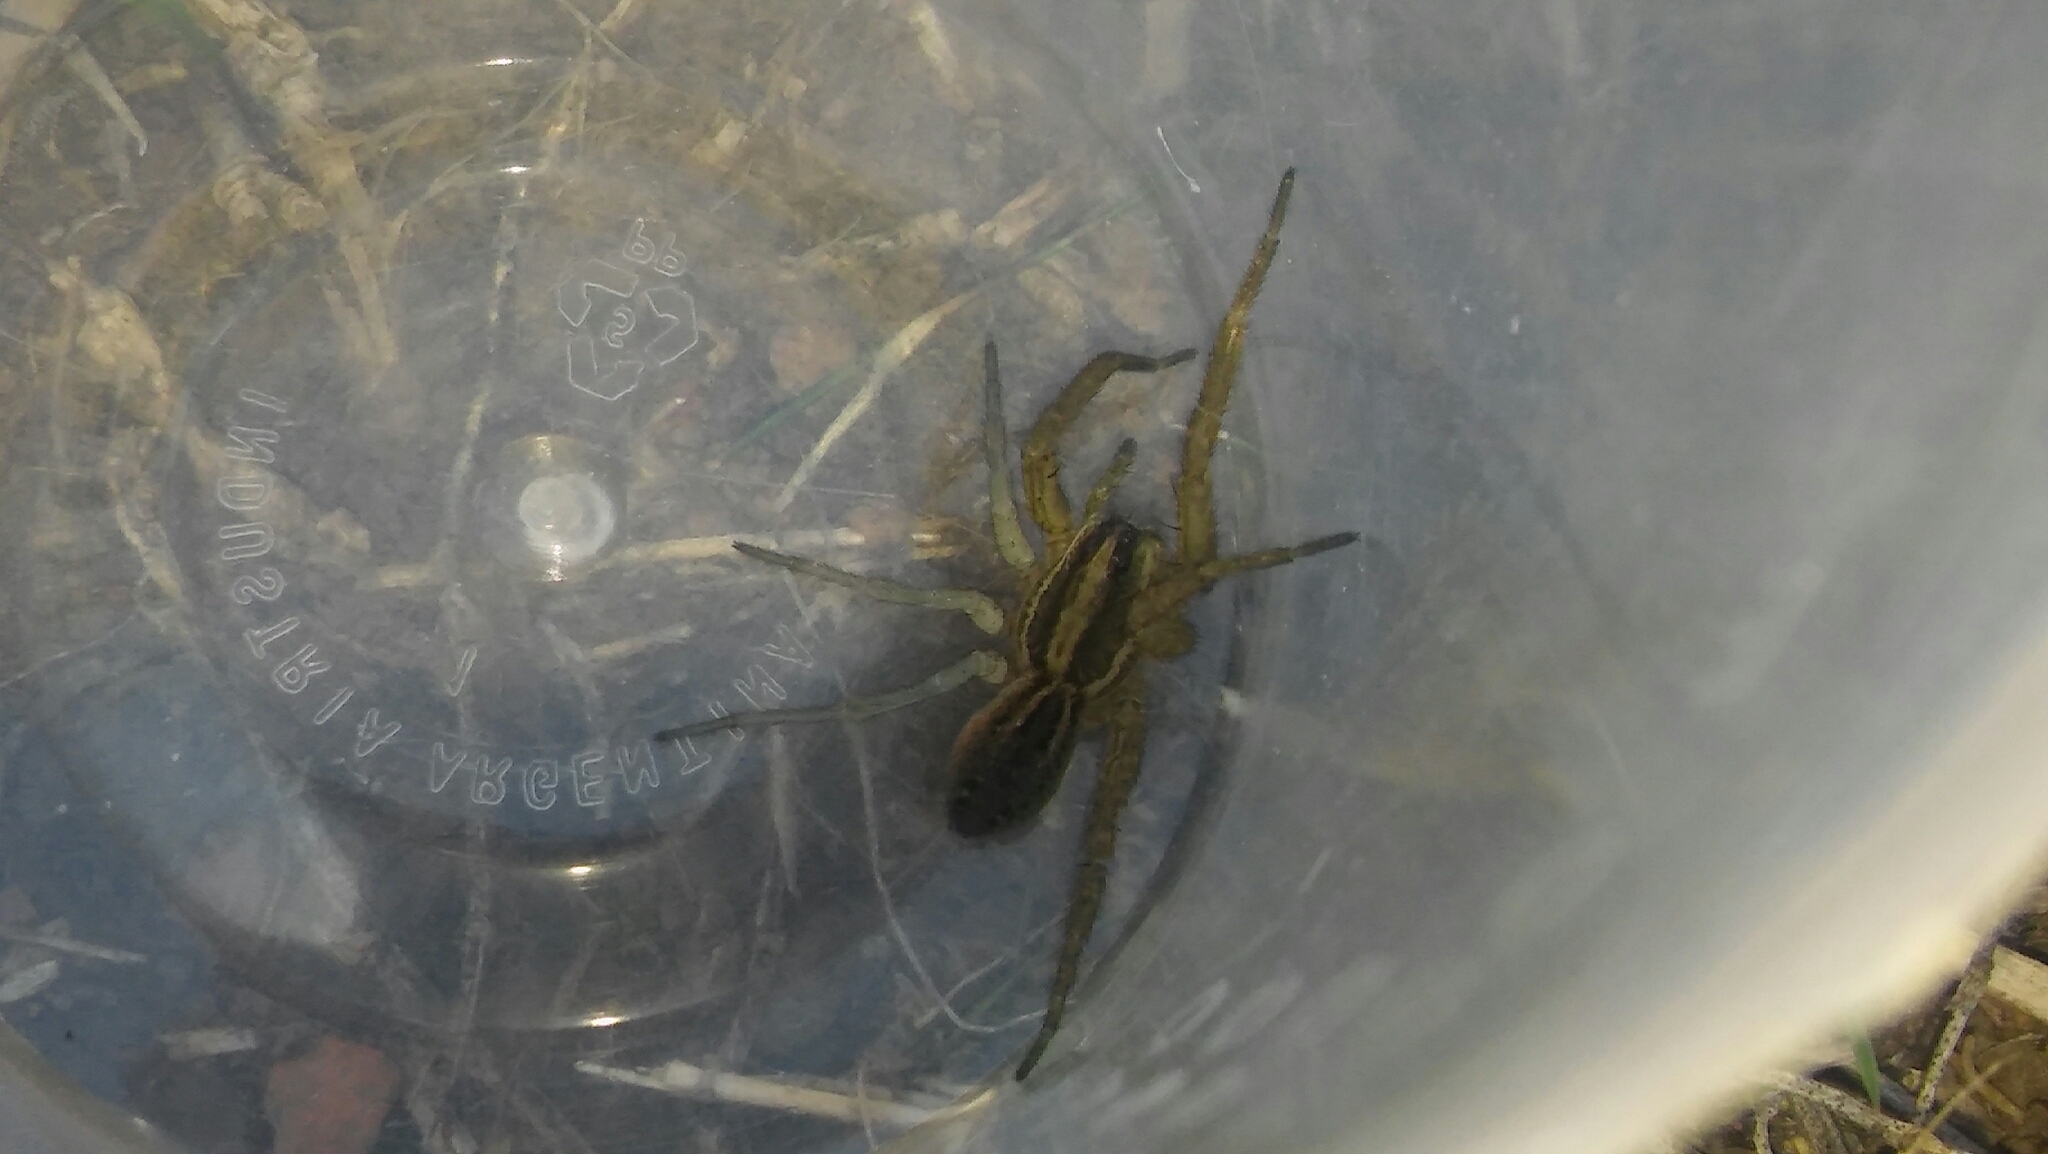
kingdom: Animalia
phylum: Arthropoda
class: Arachnida
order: Araneae
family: Lycosidae
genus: Alopecosa
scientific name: Alopecosa moesta
